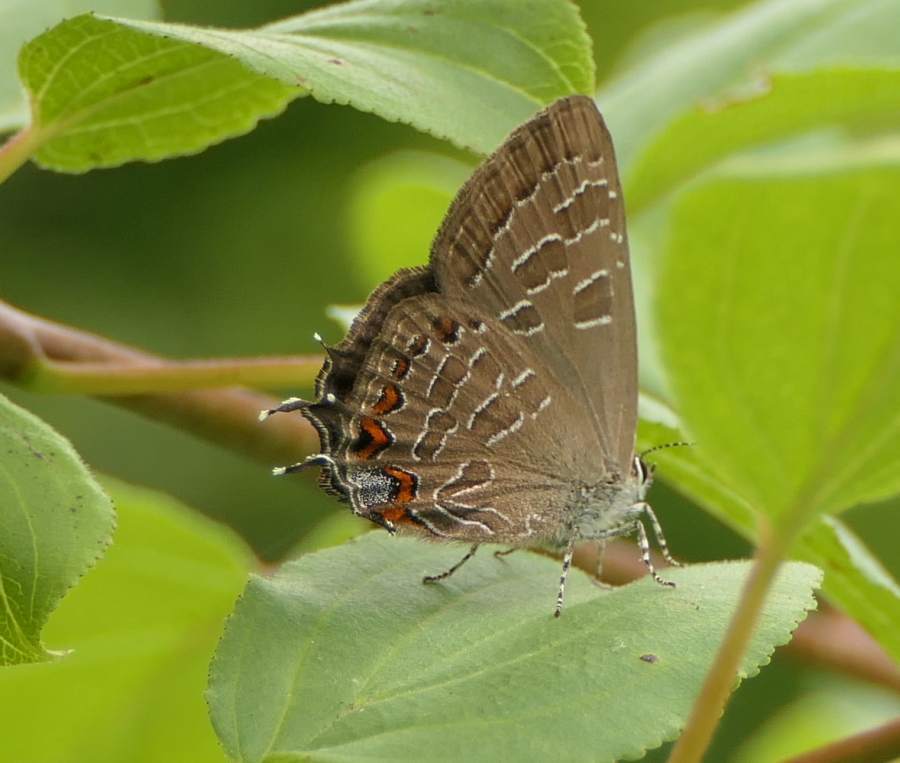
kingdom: Animalia
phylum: Arthropoda
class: Insecta
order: Lepidoptera
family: Lycaenidae
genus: Satyrium
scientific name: Satyrium liparops
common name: Striped hairstreak
